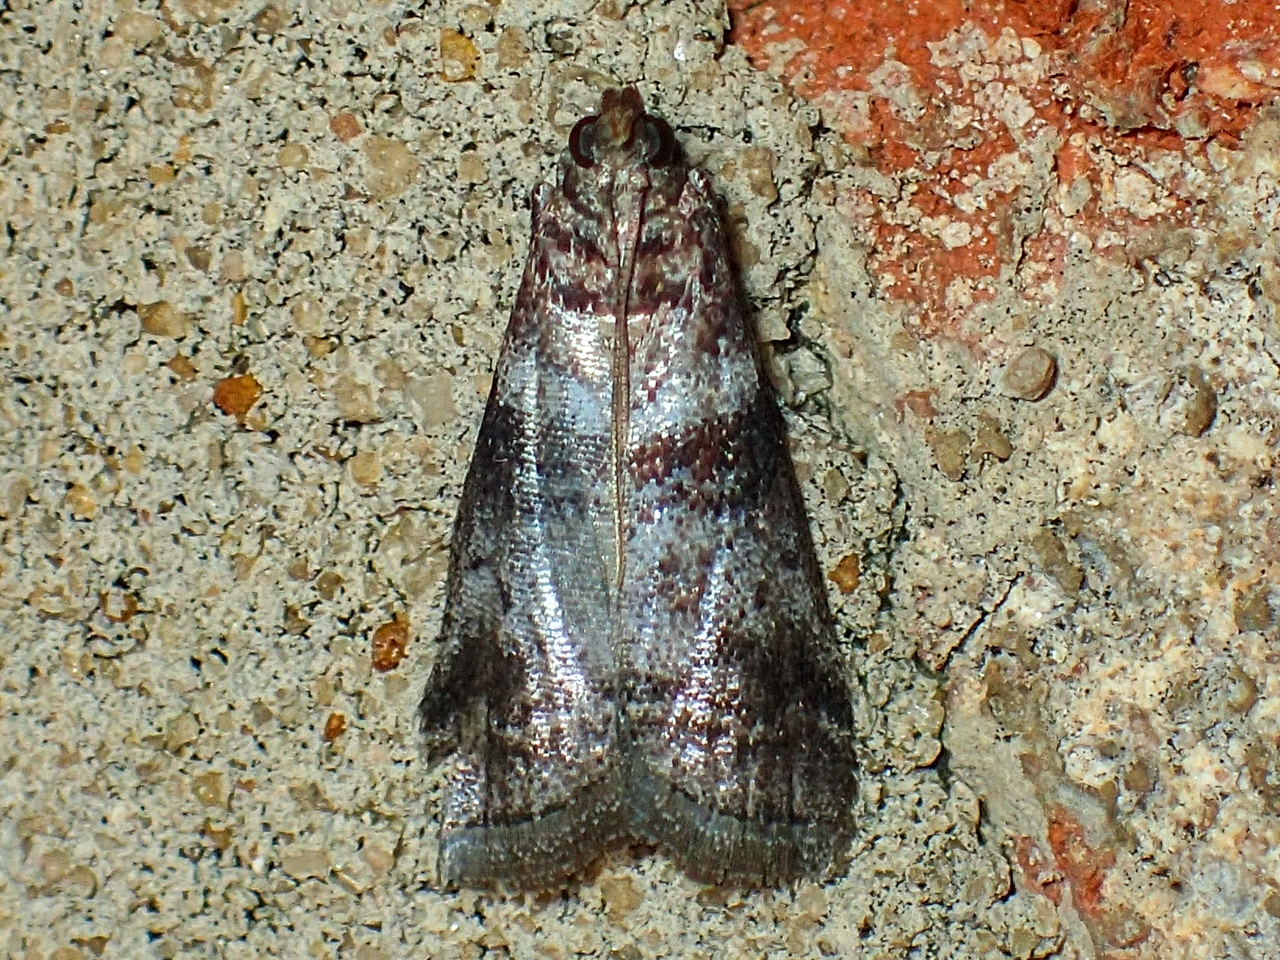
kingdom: Animalia
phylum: Arthropoda
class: Insecta
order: Lepidoptera
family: Pyralidae
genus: Sciota
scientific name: Sciota uvinella
